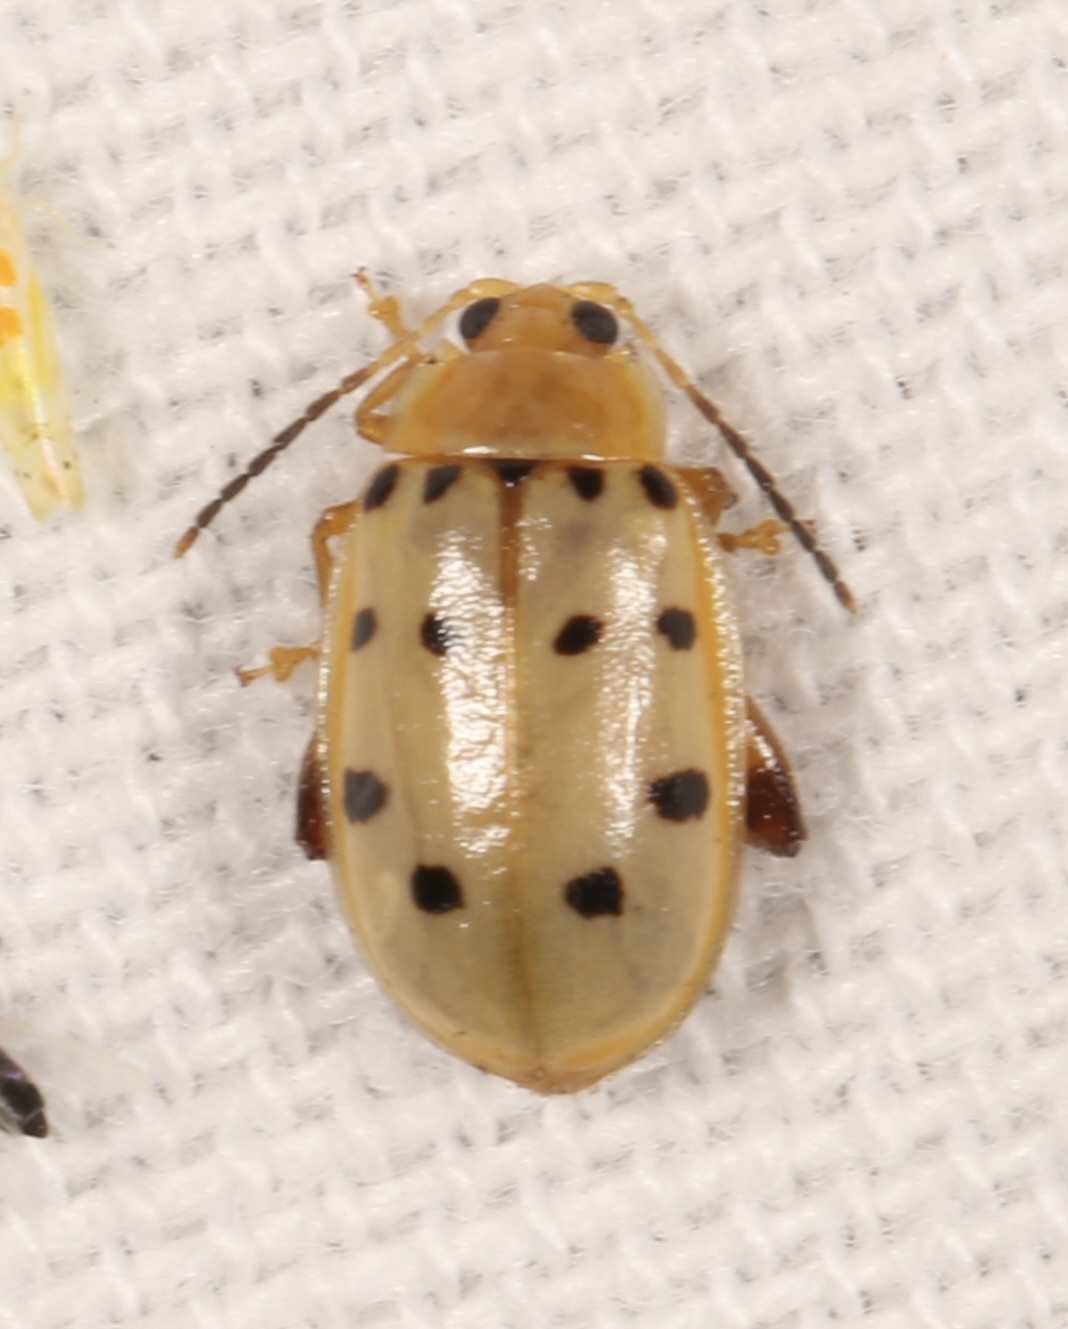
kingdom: Animalia
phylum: Arthropoda
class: Insecta
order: Coleoptera
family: Chrysomelidae
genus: Walterianella
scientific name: Walterianella
